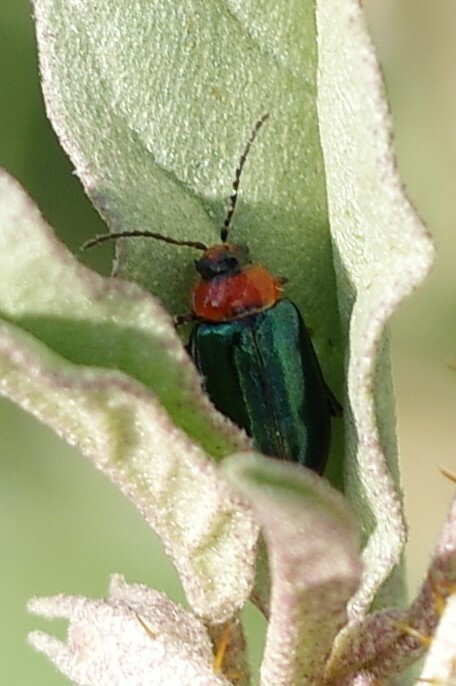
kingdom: Animalia
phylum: Arthropoda
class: Insecta
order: Coleoptera
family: Chrysomelidae
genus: Disonycha
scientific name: Disonycha politula
